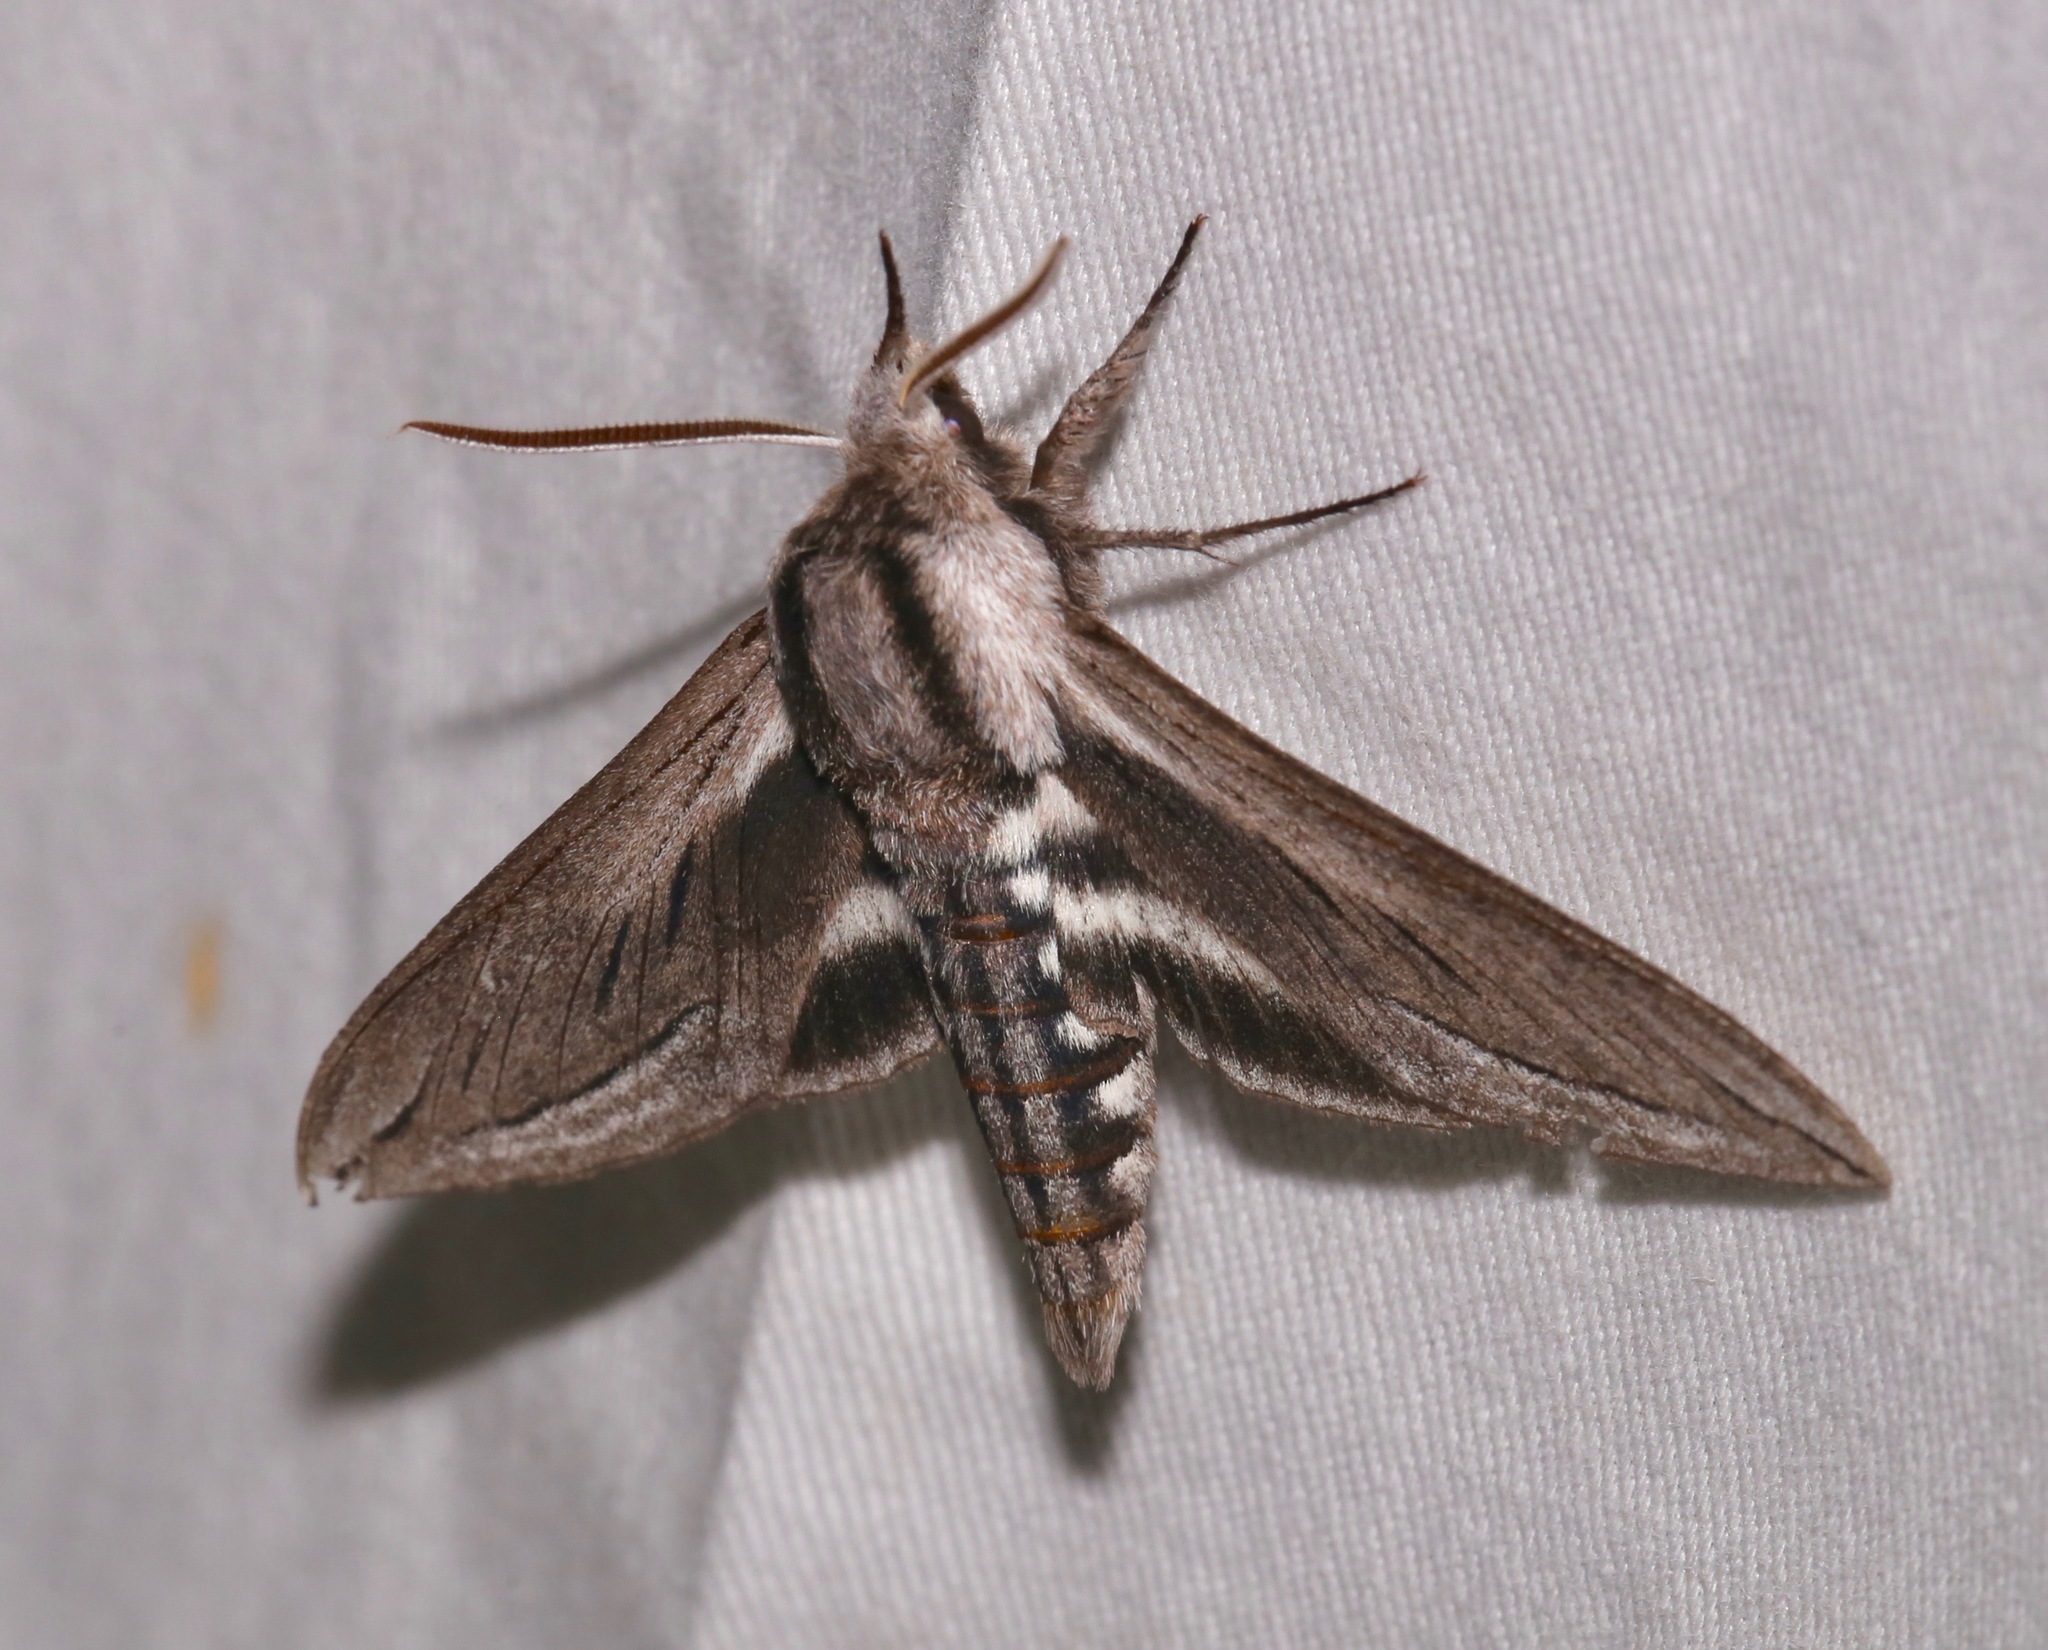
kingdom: Animalia
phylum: Arthropoda
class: Insecta
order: Lepidoptera
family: Sphingidae
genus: Sphinx
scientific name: Sphinx vashti
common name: Snowberry sphinx
